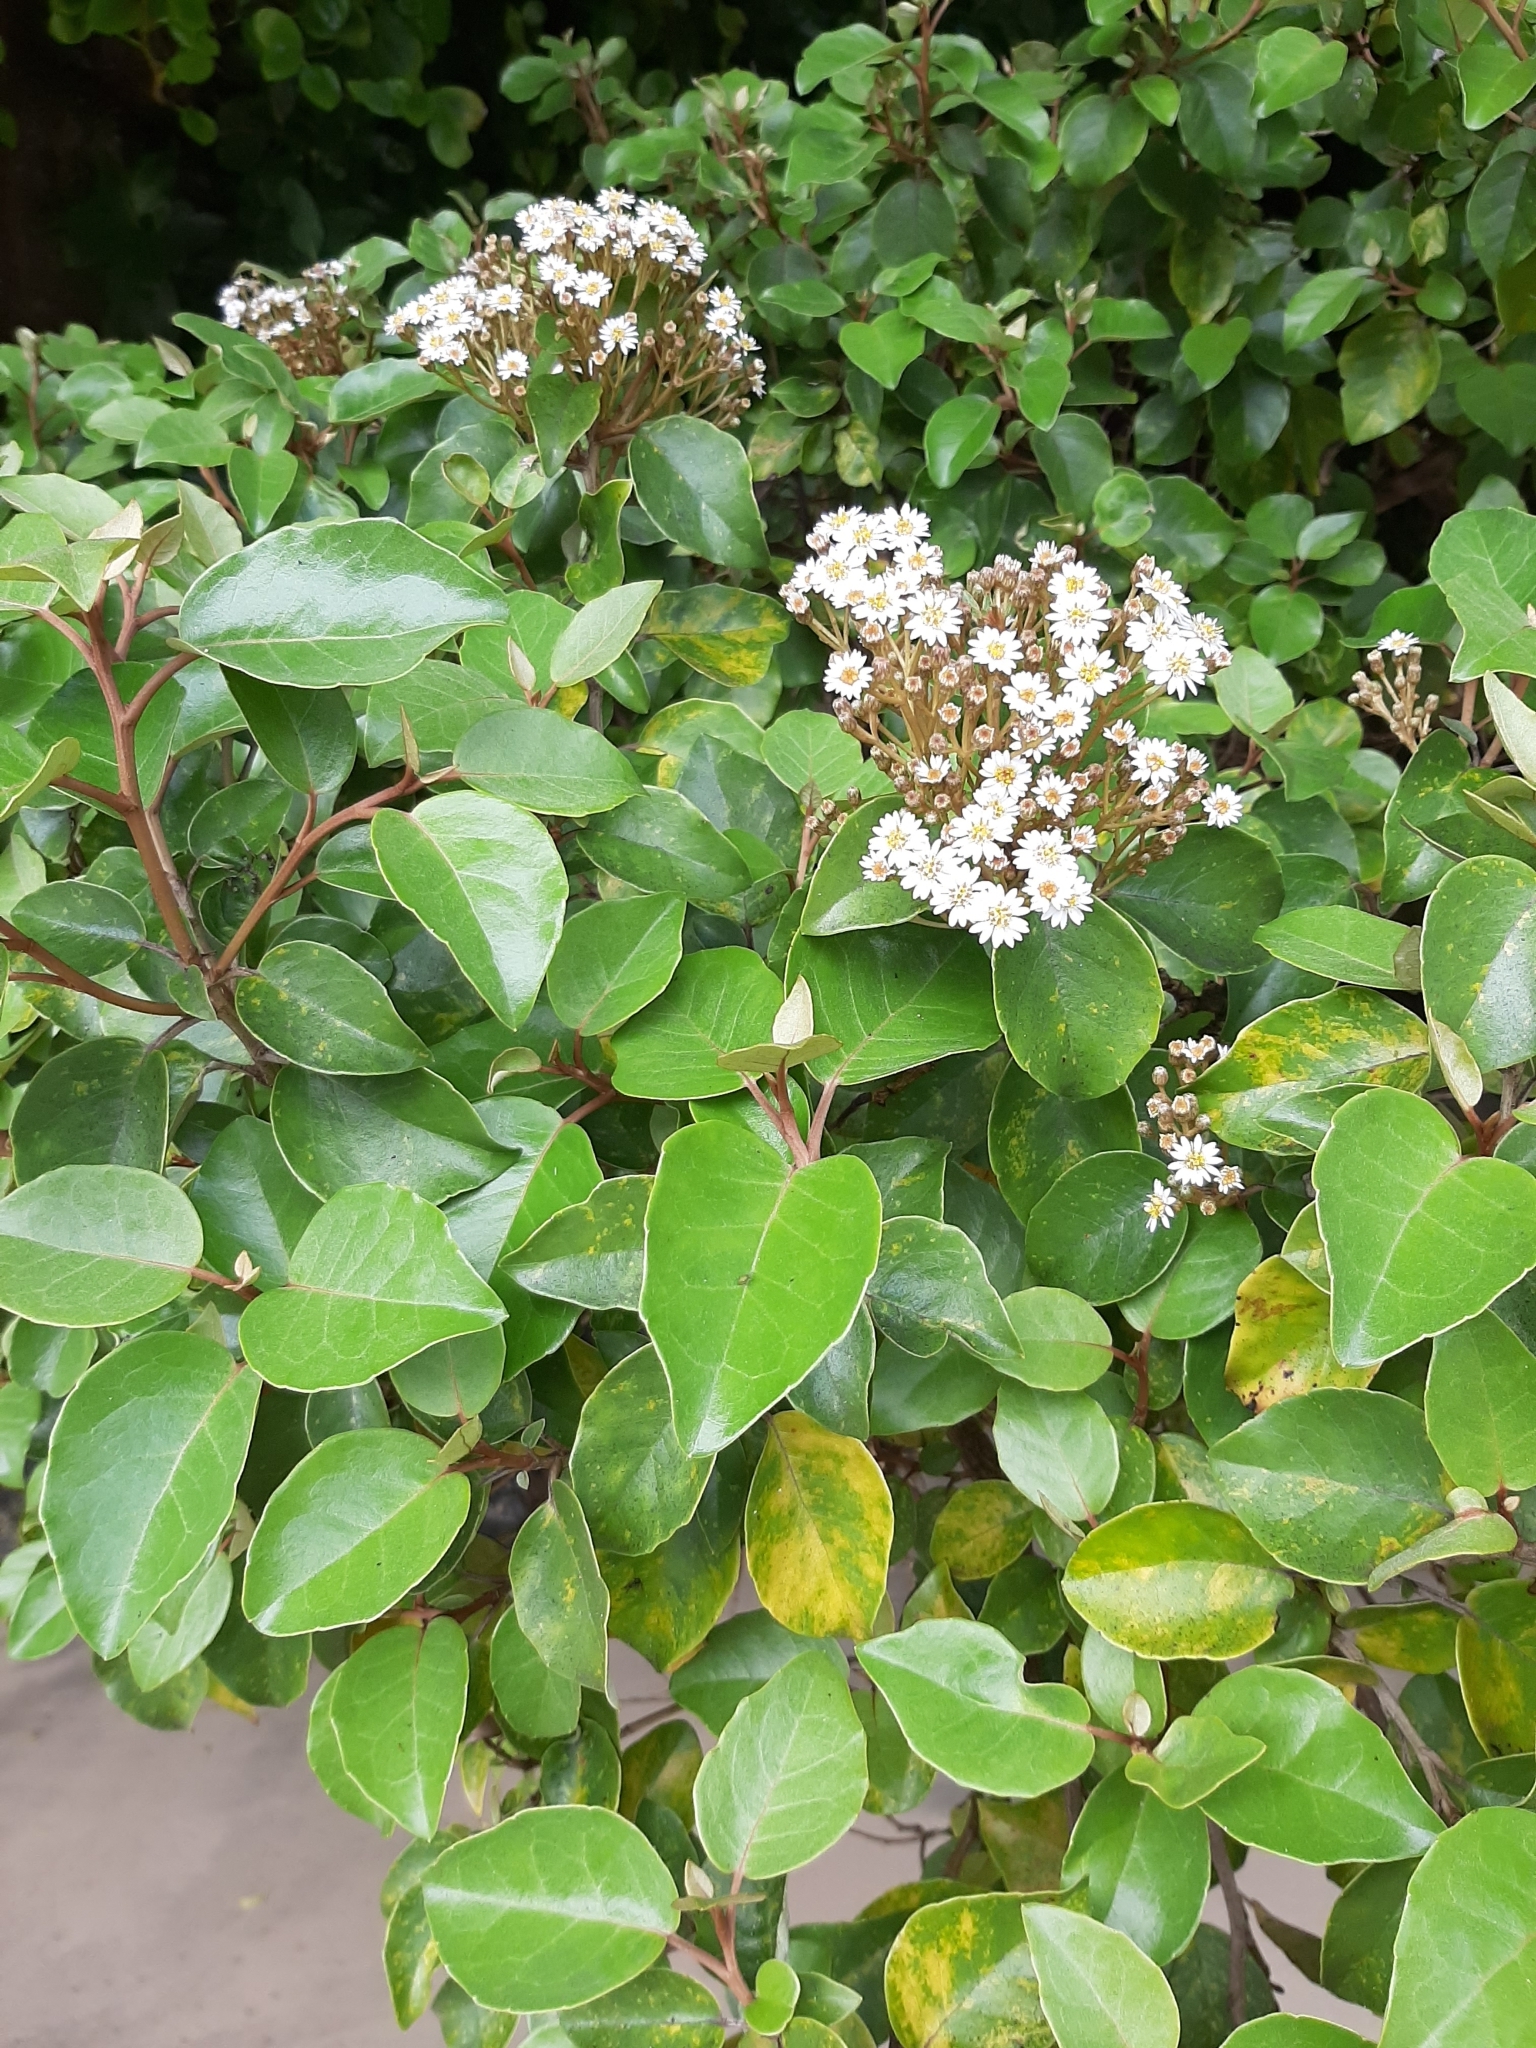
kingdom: Plantae
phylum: Tracheophyta
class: Magnoliopsida
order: Asterales
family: Asteraceae
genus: Olearia
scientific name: Olearia arborescens
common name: Glossy tree daisy
